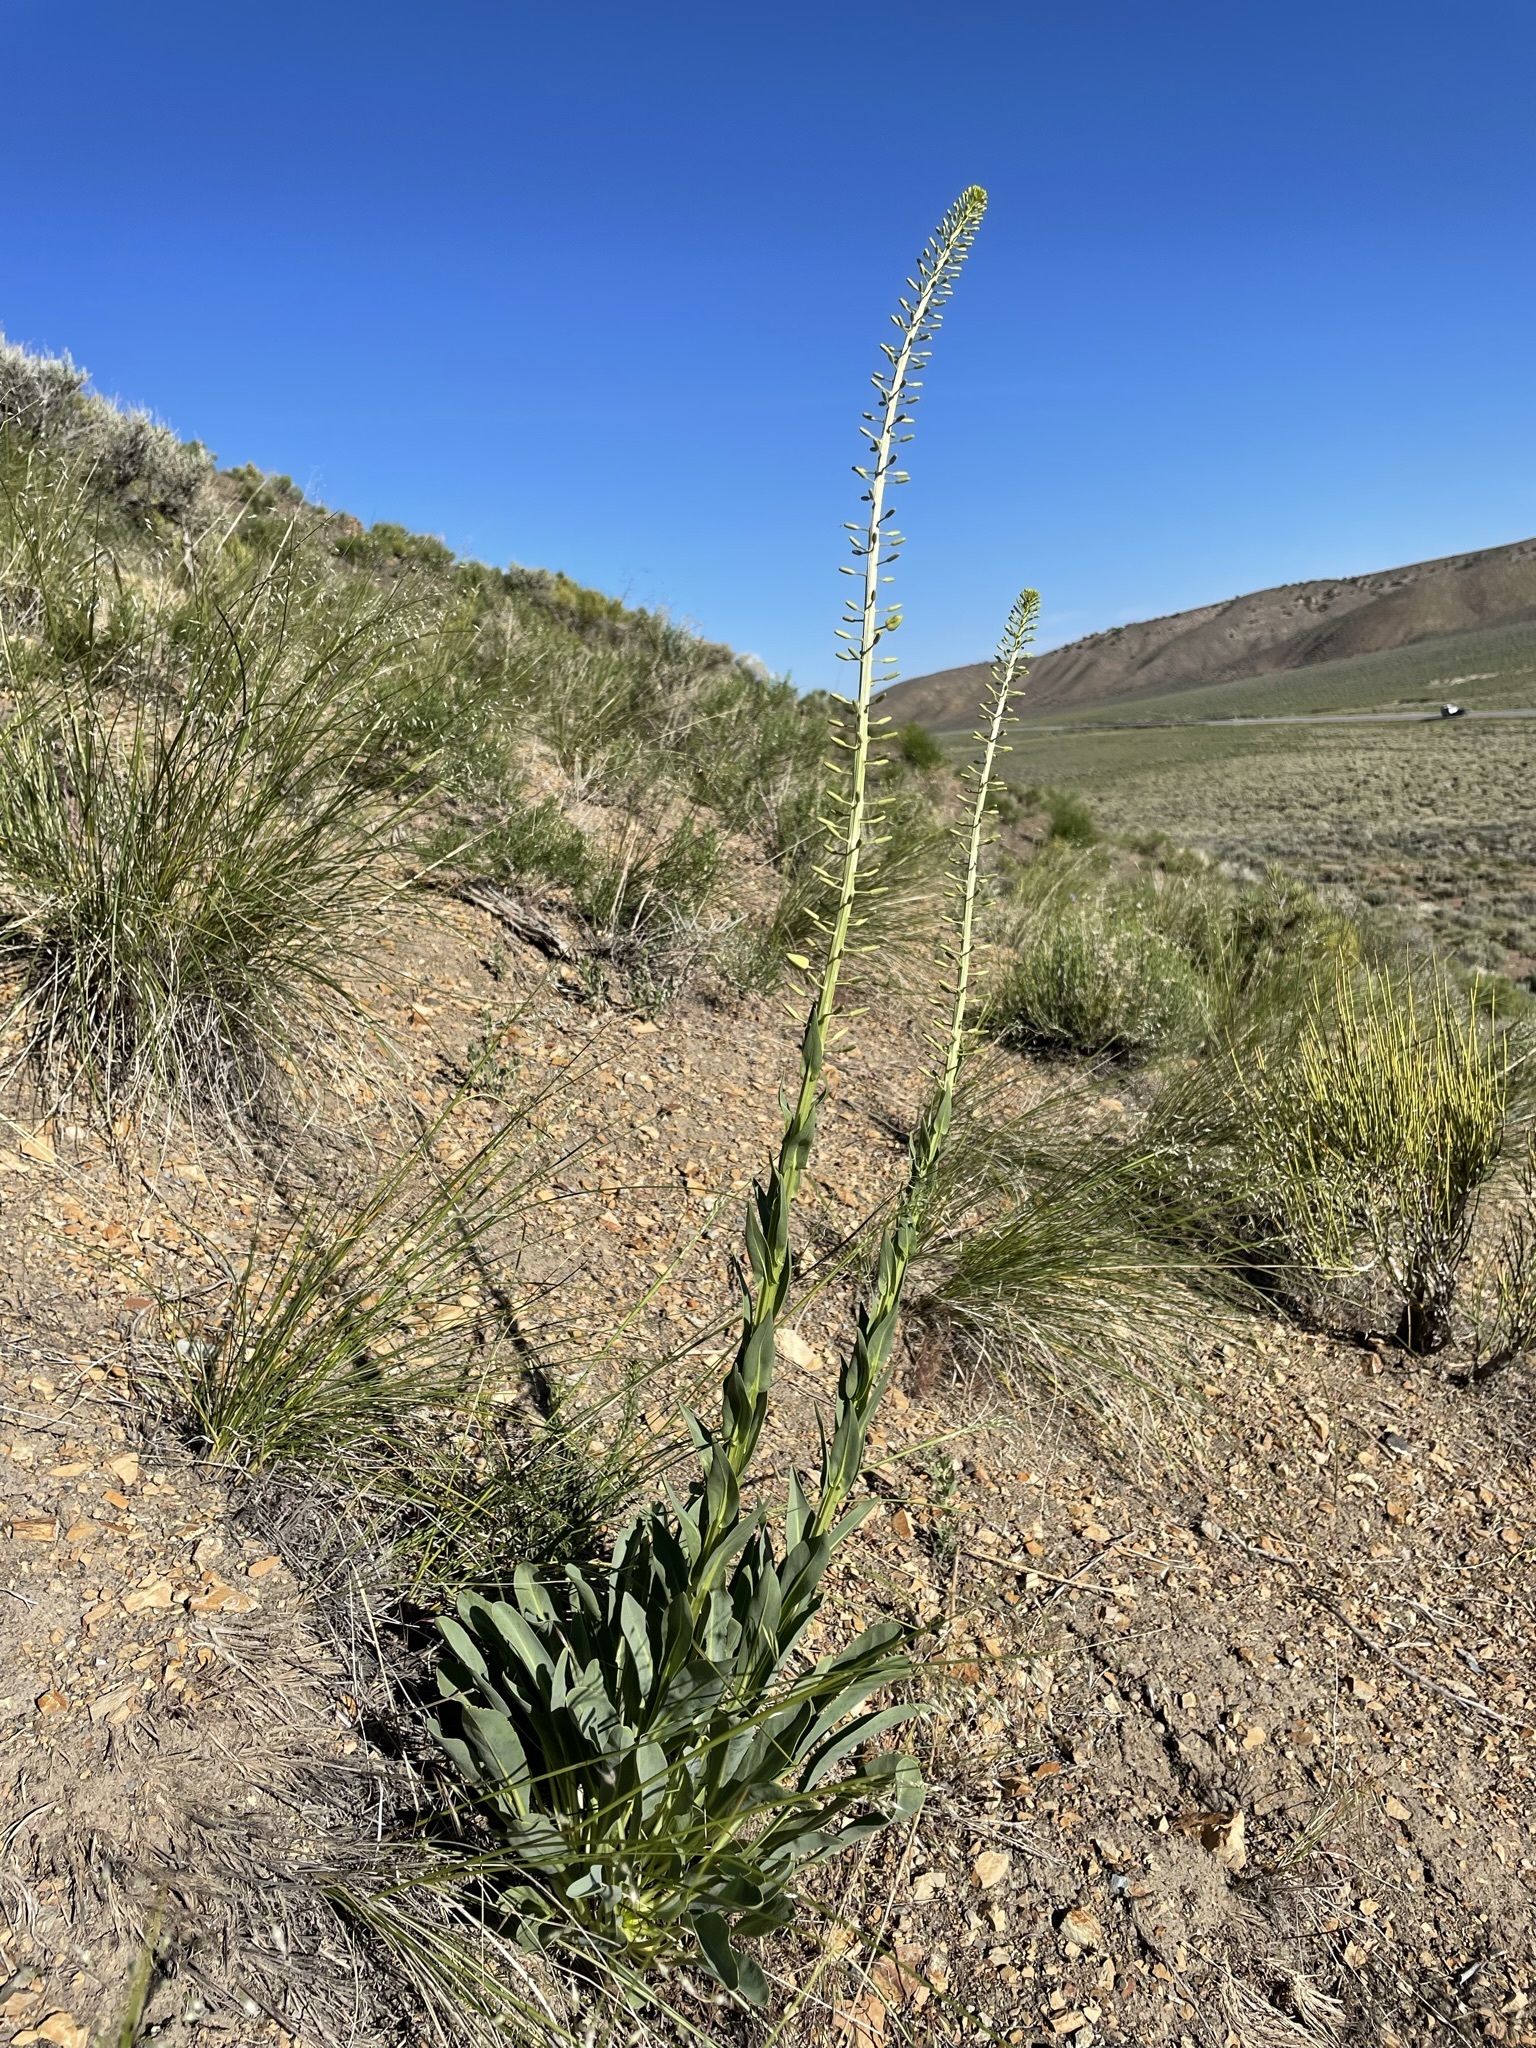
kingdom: Plantae
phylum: Tracheophyta
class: Magnoliopsida
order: Brassicales
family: Brassicaceae
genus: Stanleya
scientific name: Stanleya viridiflora
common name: Desert plume
